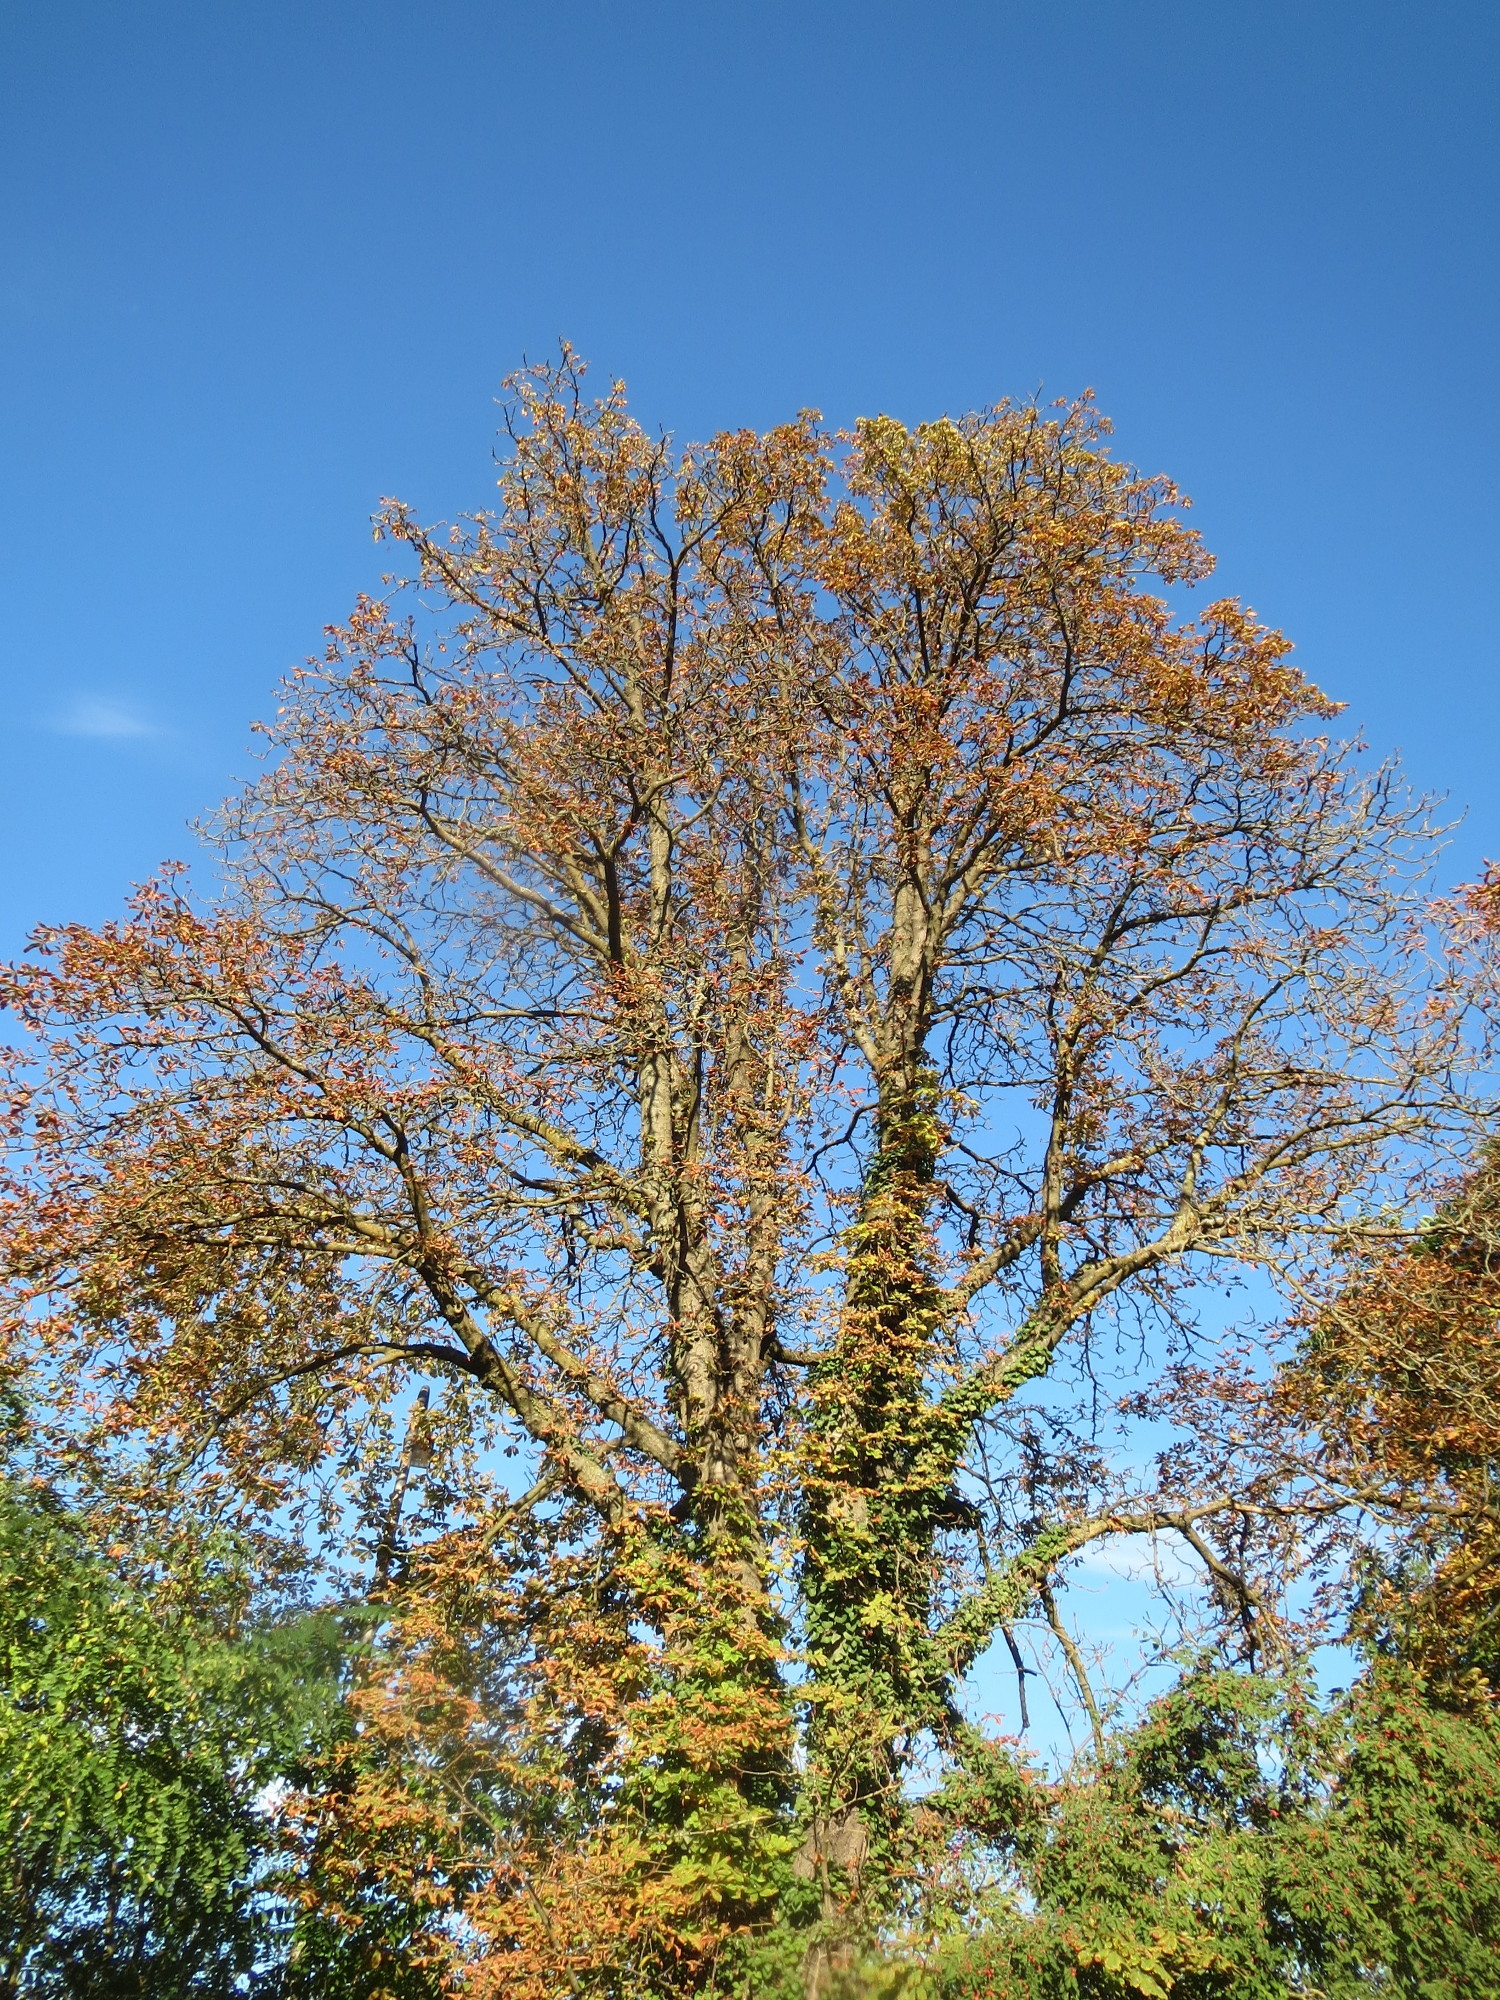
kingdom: Plantae
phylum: Tracheophyta
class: Magnoliopsida
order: Sapindales
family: Sapindaceae
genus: Aesculus
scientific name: Aesculus hippocastanum
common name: Horse-chestnut
